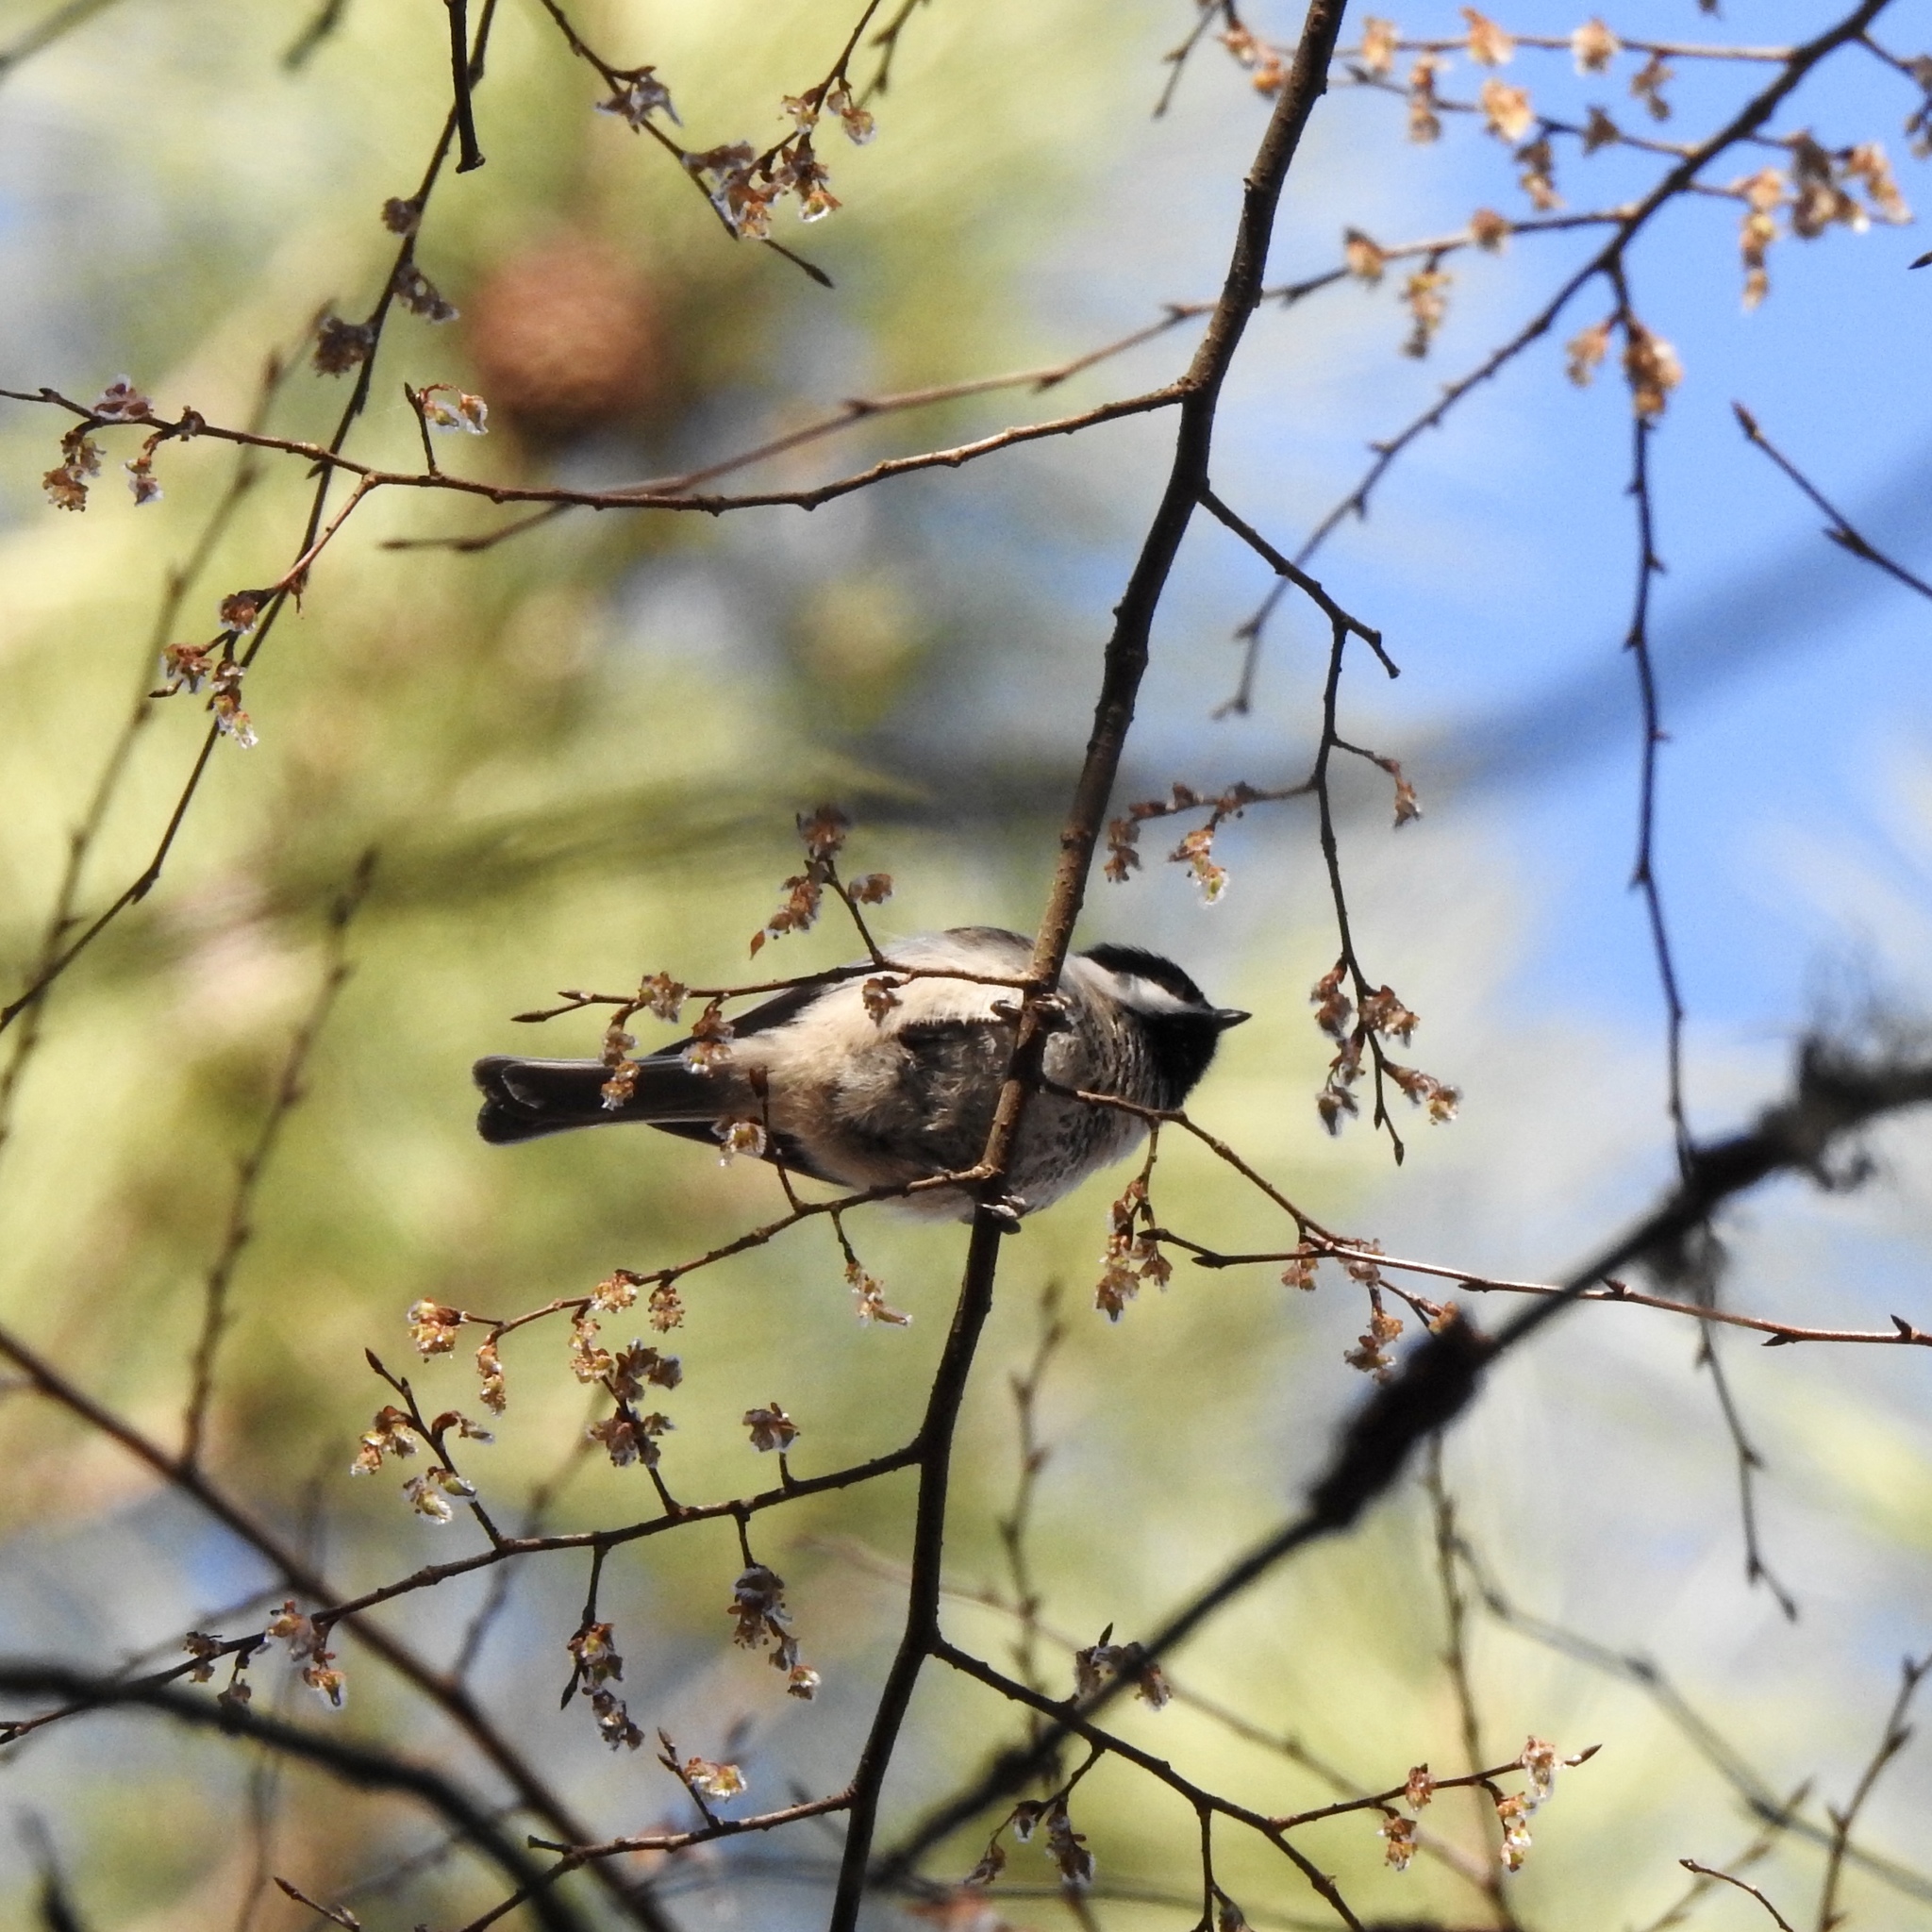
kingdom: Animalia
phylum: Chordata
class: Aves
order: Passeriformes
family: Paridae
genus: Poecile
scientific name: Poecile carolinensis
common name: Carolina chickadee
